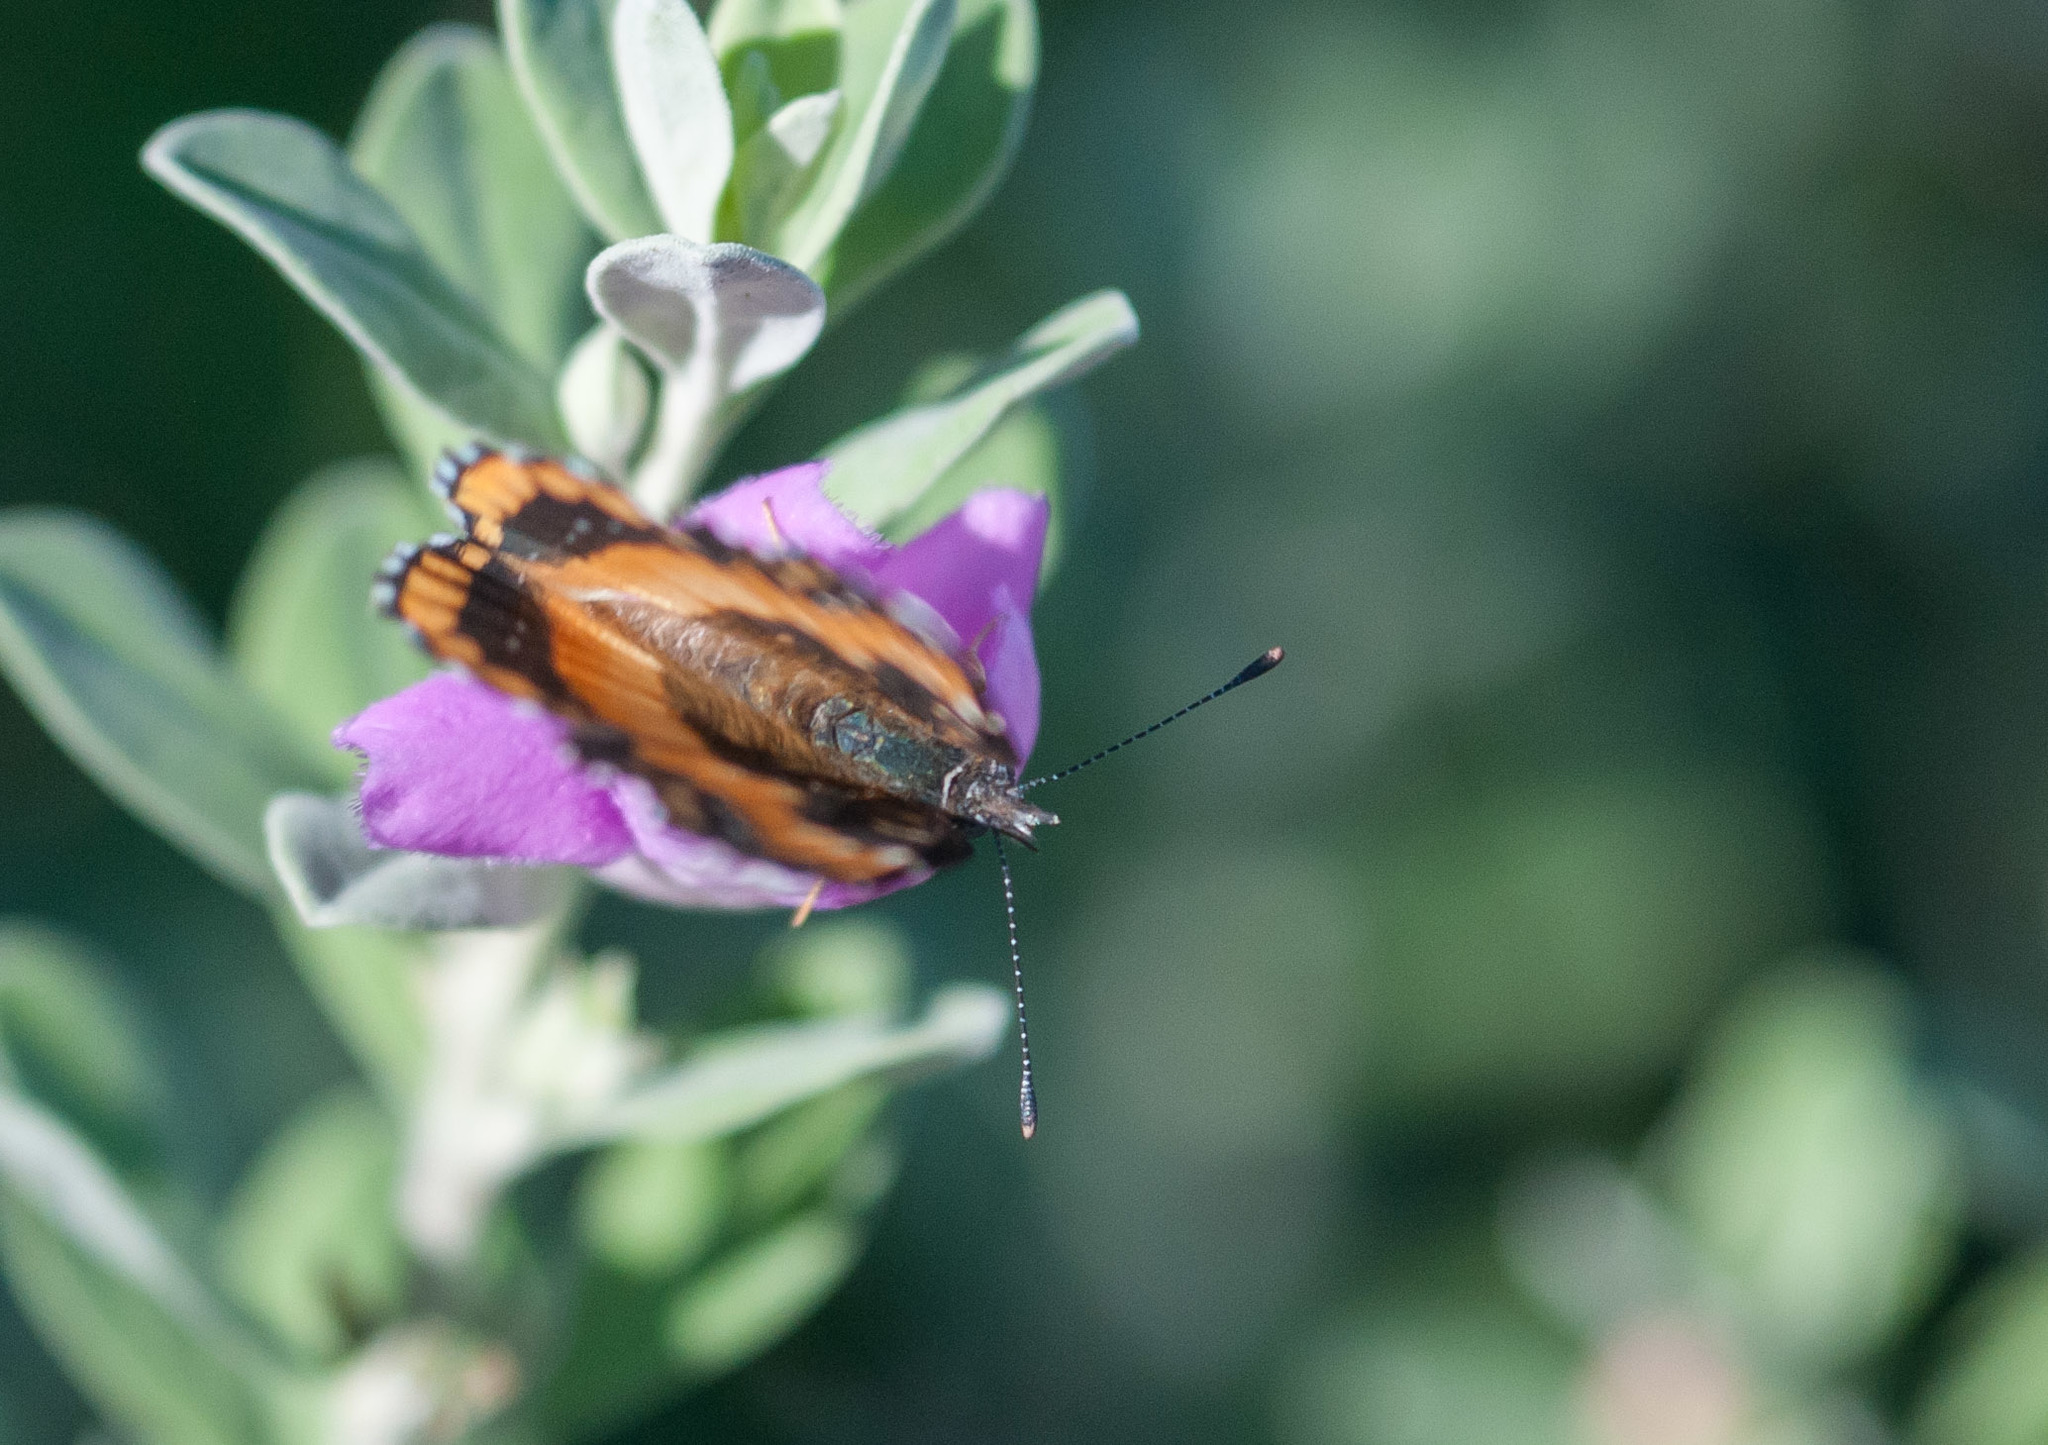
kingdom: Animalia
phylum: Arthropoda
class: Insecta
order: Lepidoptera
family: Nymphalidae
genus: Chlosyne
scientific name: Chlosyne californica
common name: California patch
